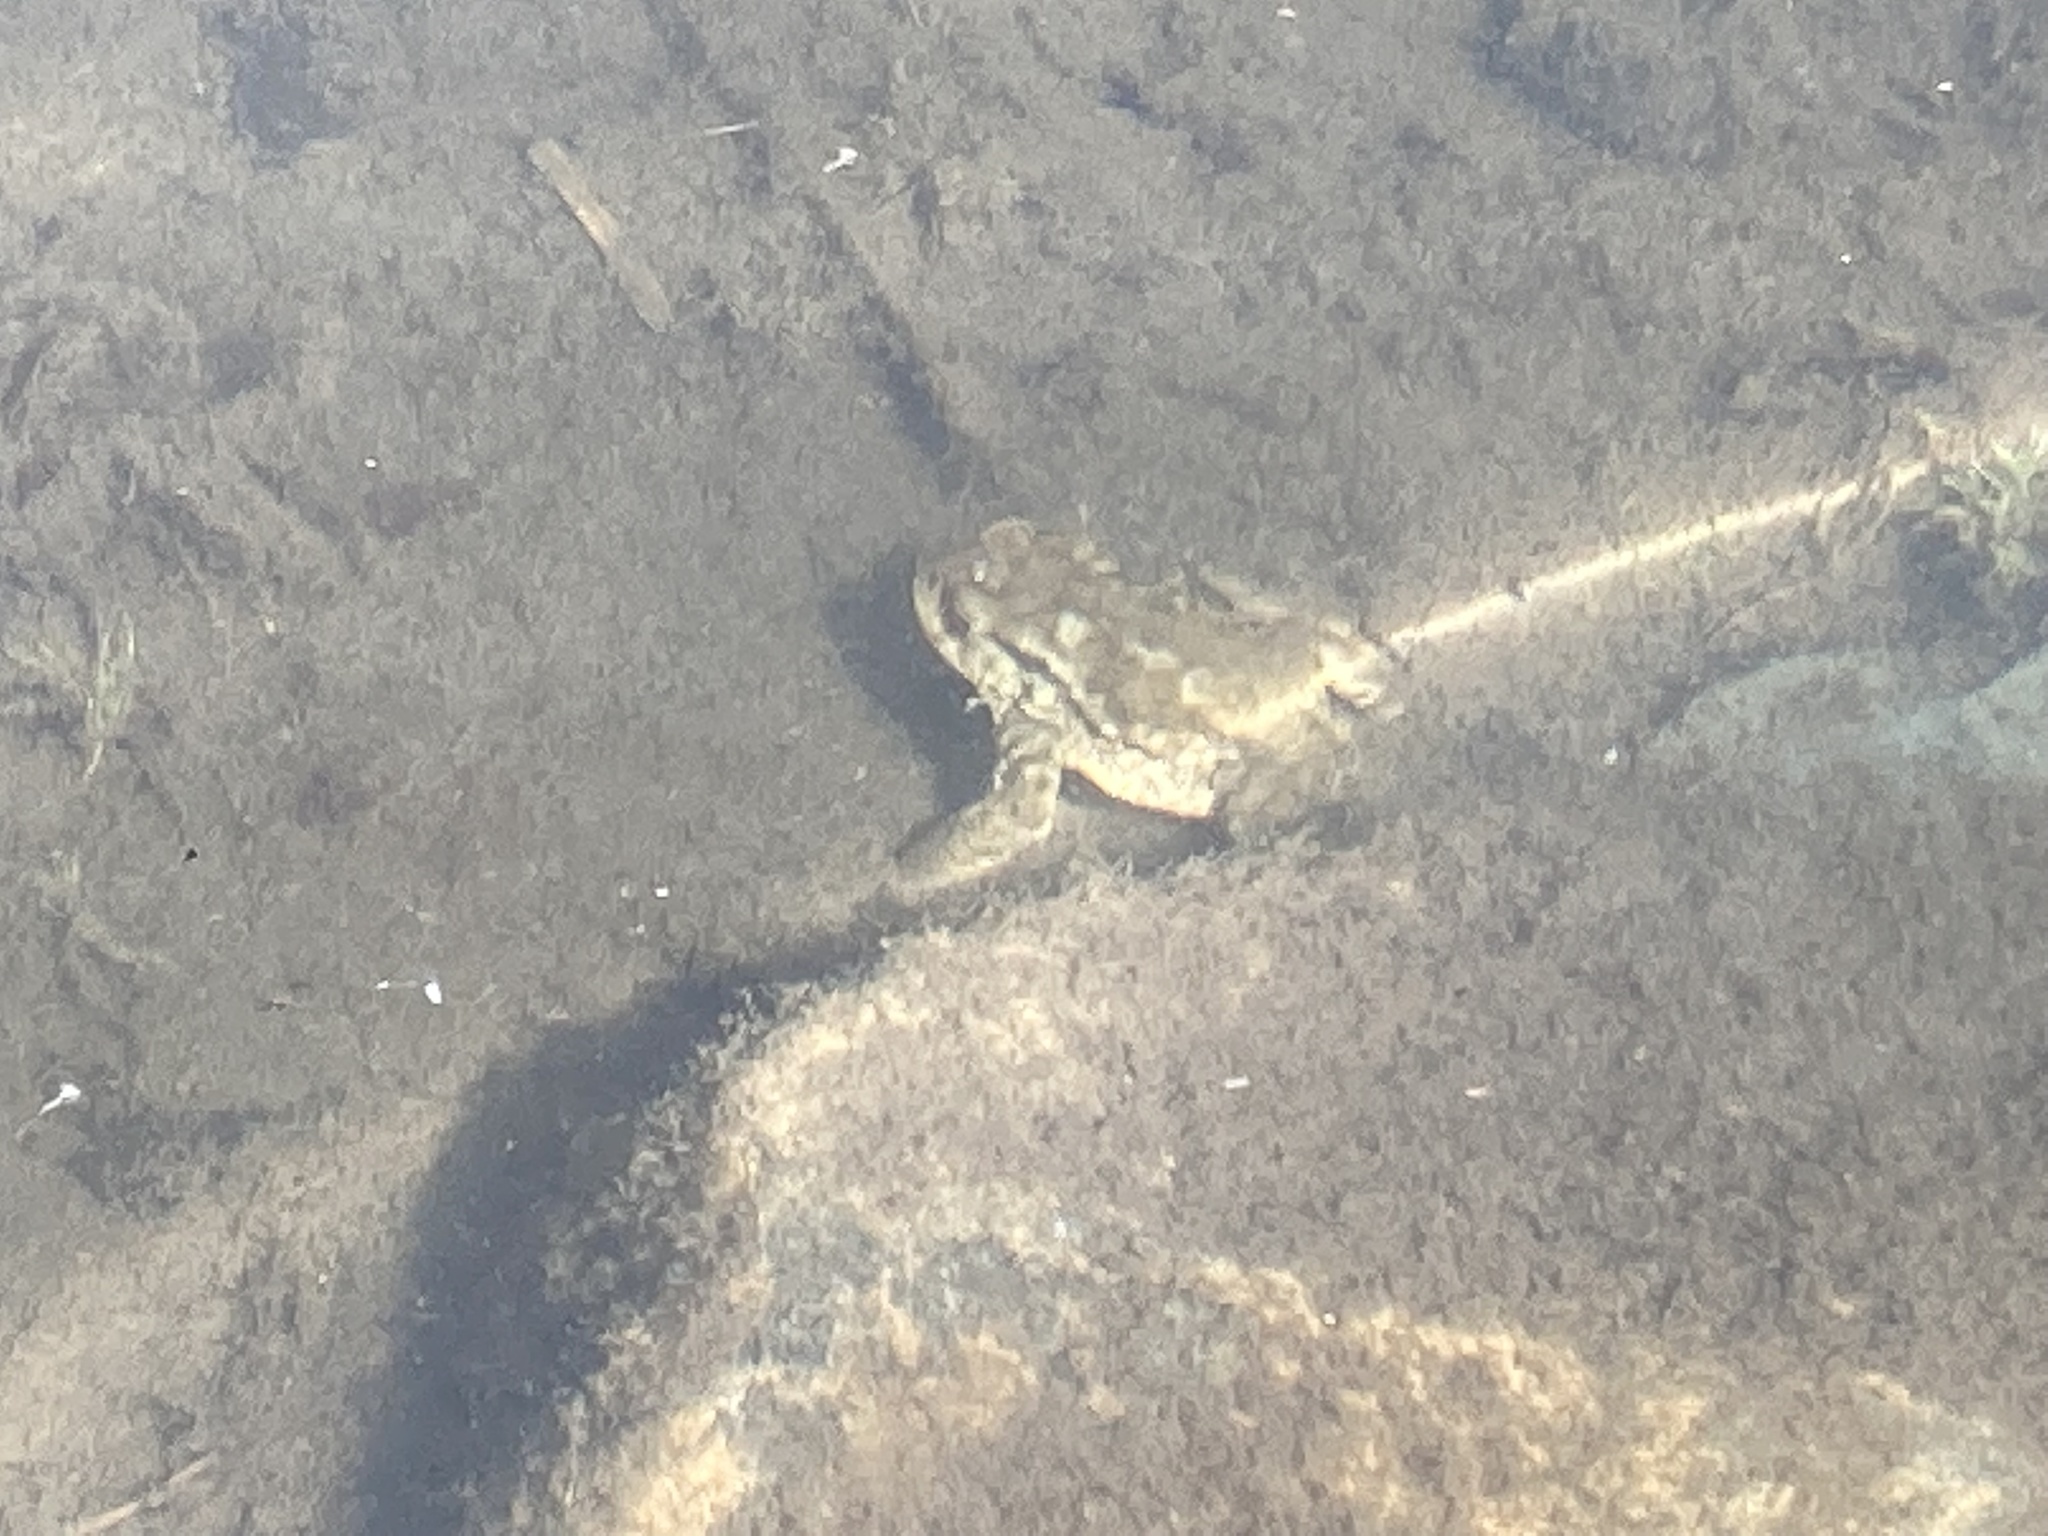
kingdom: Animalia
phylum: Chordata
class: Amphibia
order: Anura
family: Bufonidae
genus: Bufo
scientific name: Bufo spinosus
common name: Western common toad
